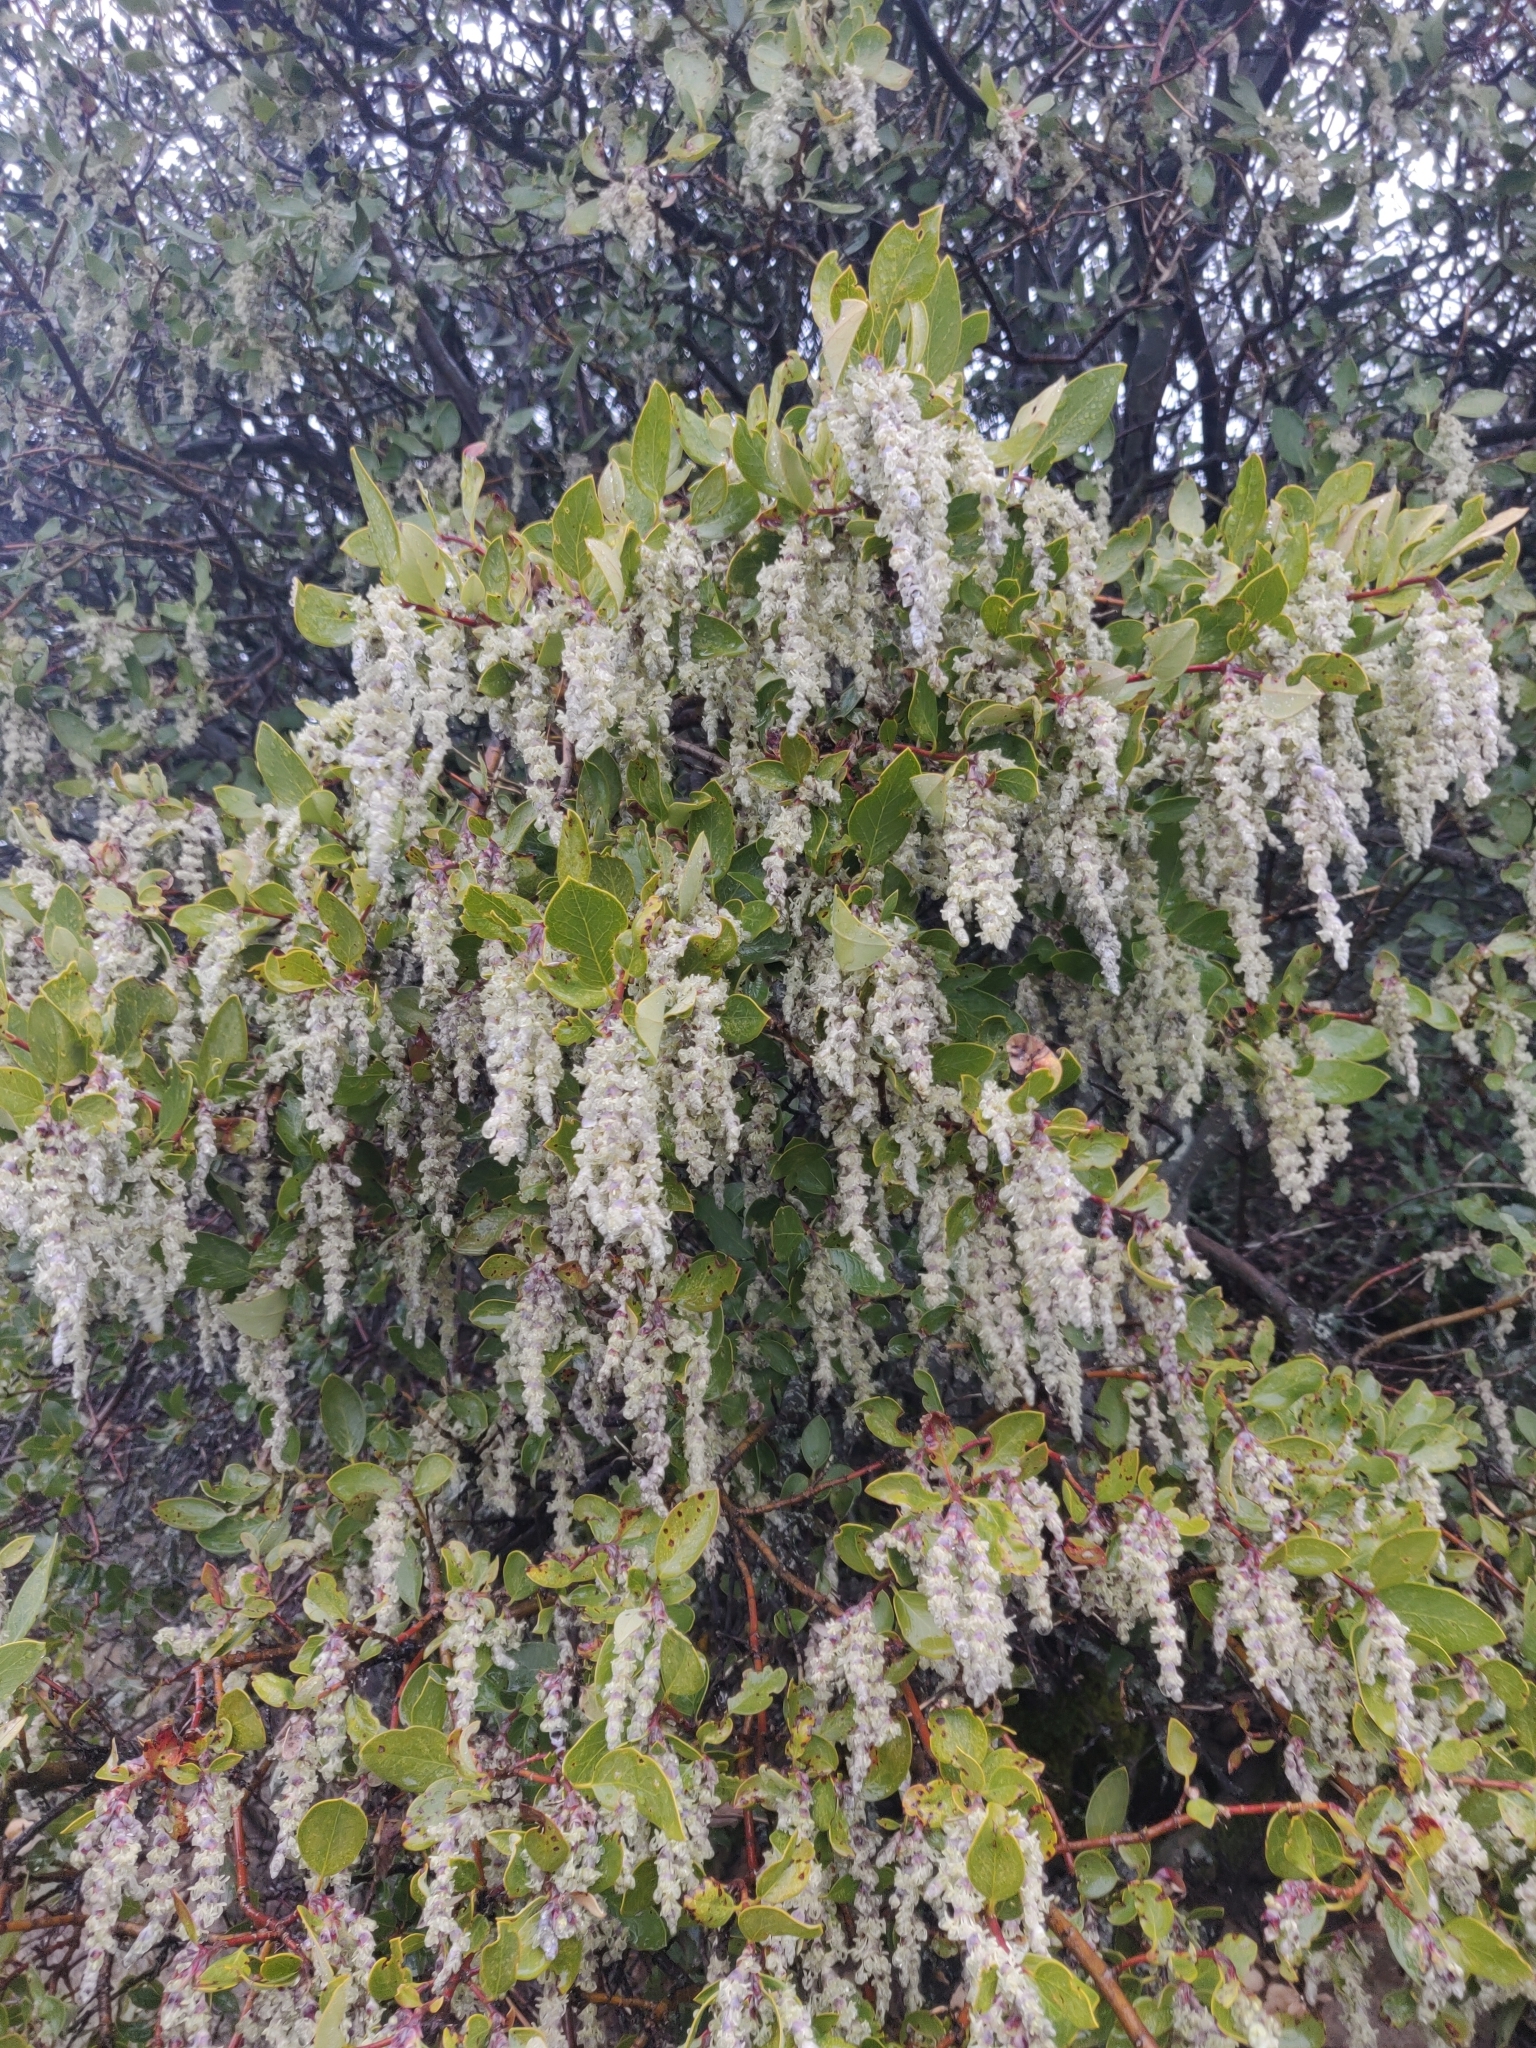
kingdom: Plantae
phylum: Tracheophyta
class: Magnoliopsida
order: Garryales
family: Garryaceae
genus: Garrya
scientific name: Garrya elliptica
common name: Silk-tassel
